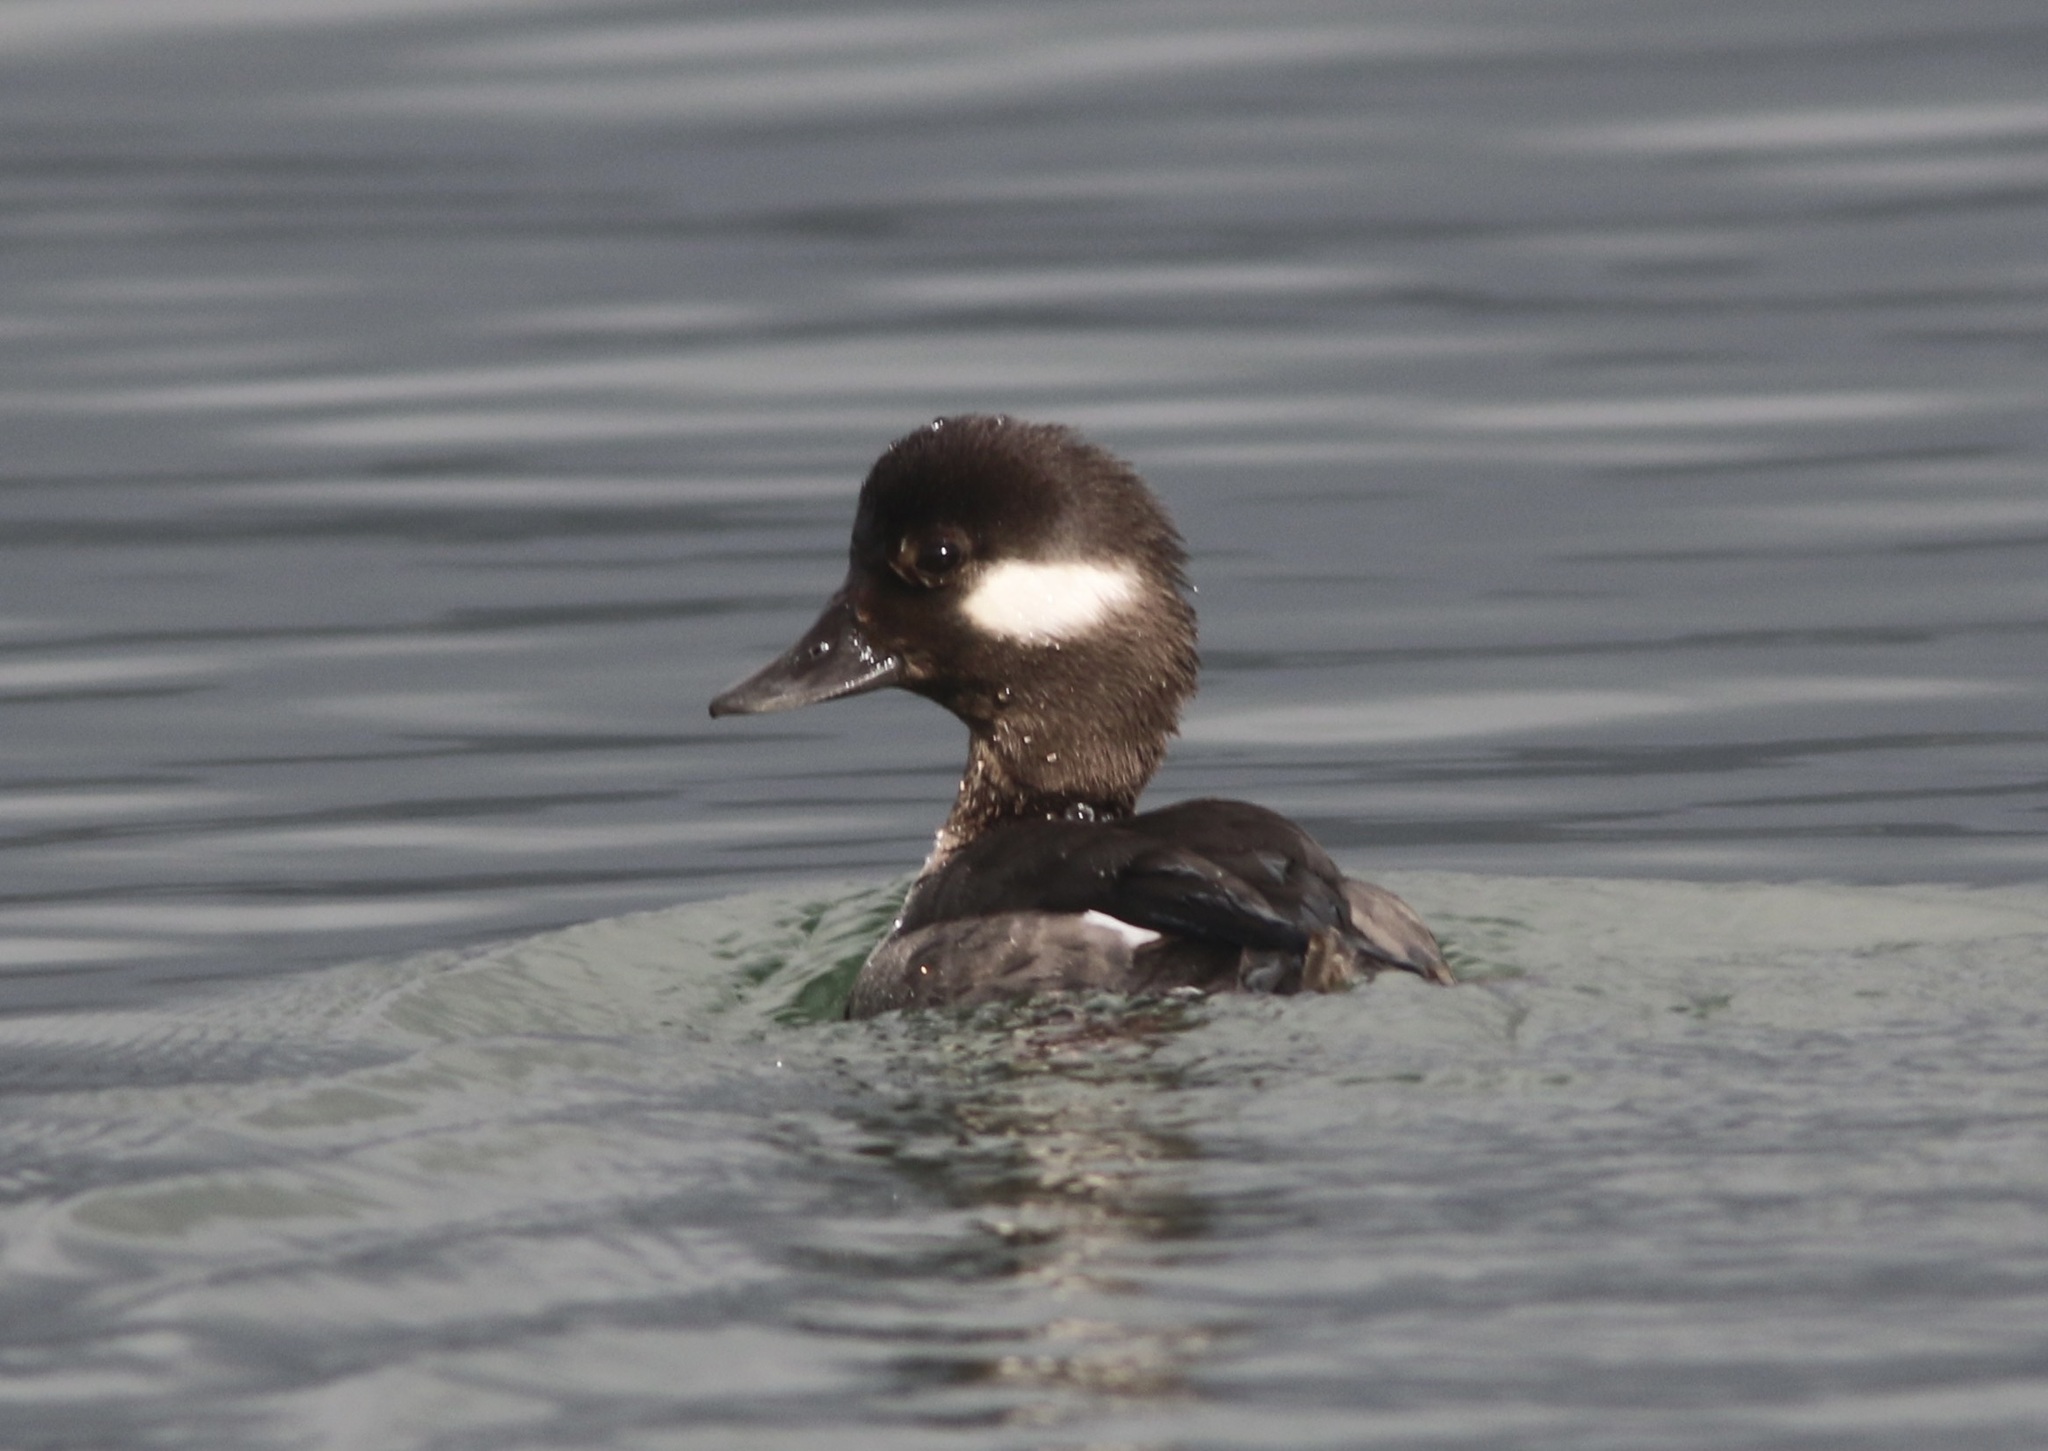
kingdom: Animalia
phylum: Chordata
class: Aves
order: Anseriformes
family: Anatidae
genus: Bucephala
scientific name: Bucephala albeola
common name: Bufflehead
